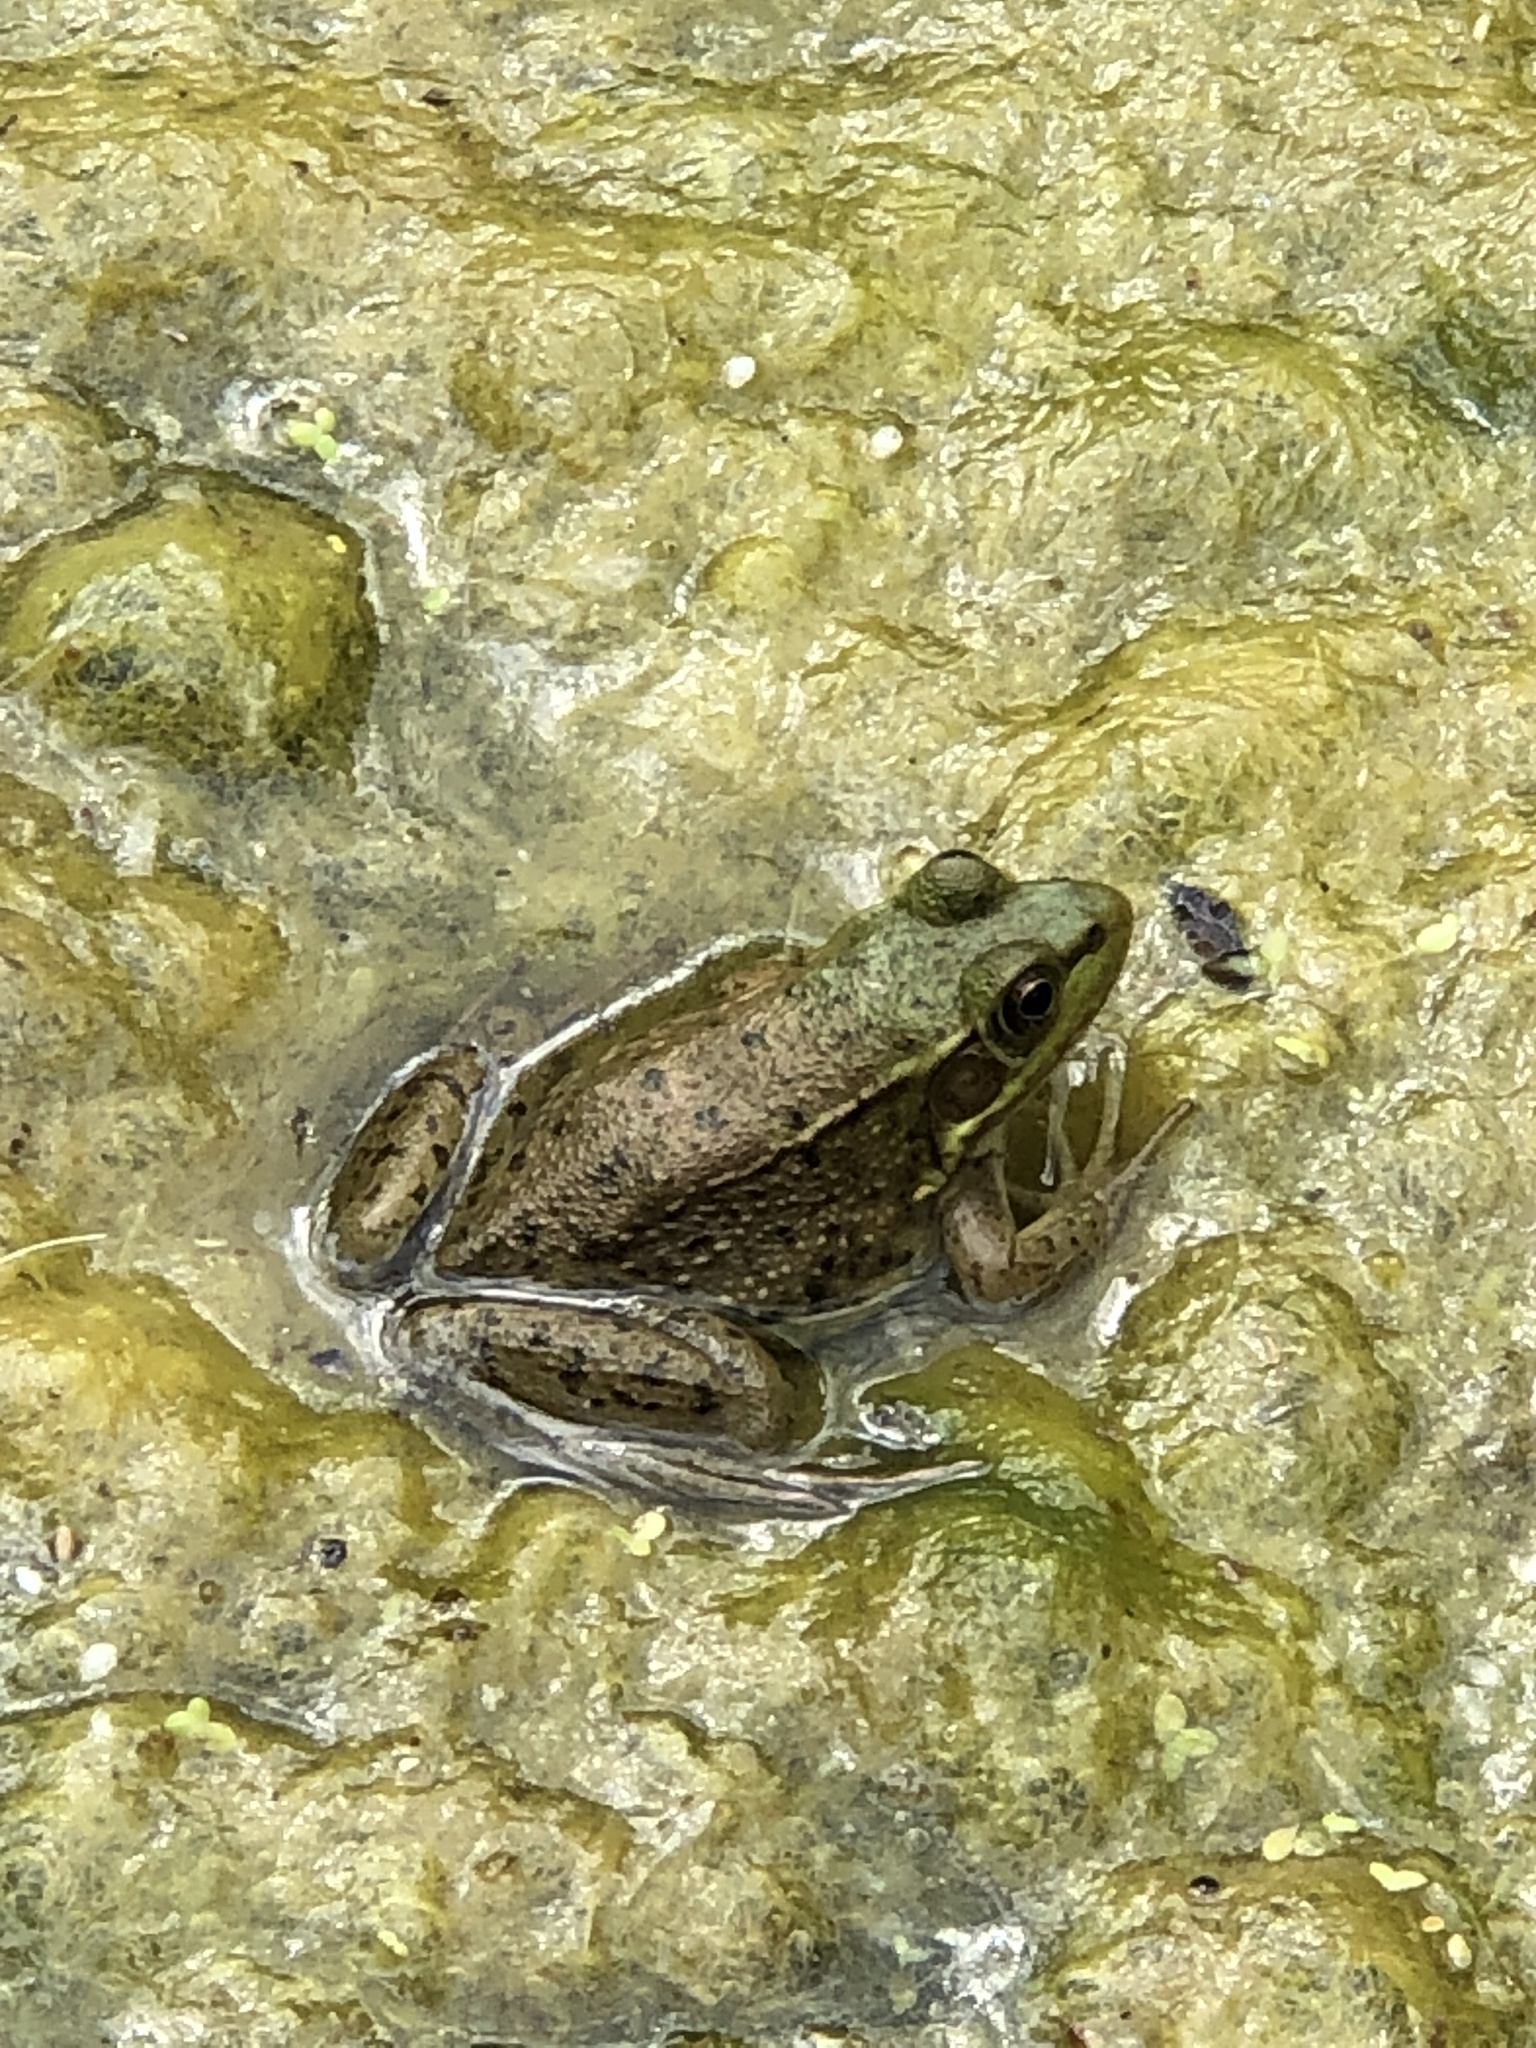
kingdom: Animalia
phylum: Chordata
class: Amphibia
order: Anura
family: Ranidae
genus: Lithobates
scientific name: Lithobates clamitans
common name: Green frog
